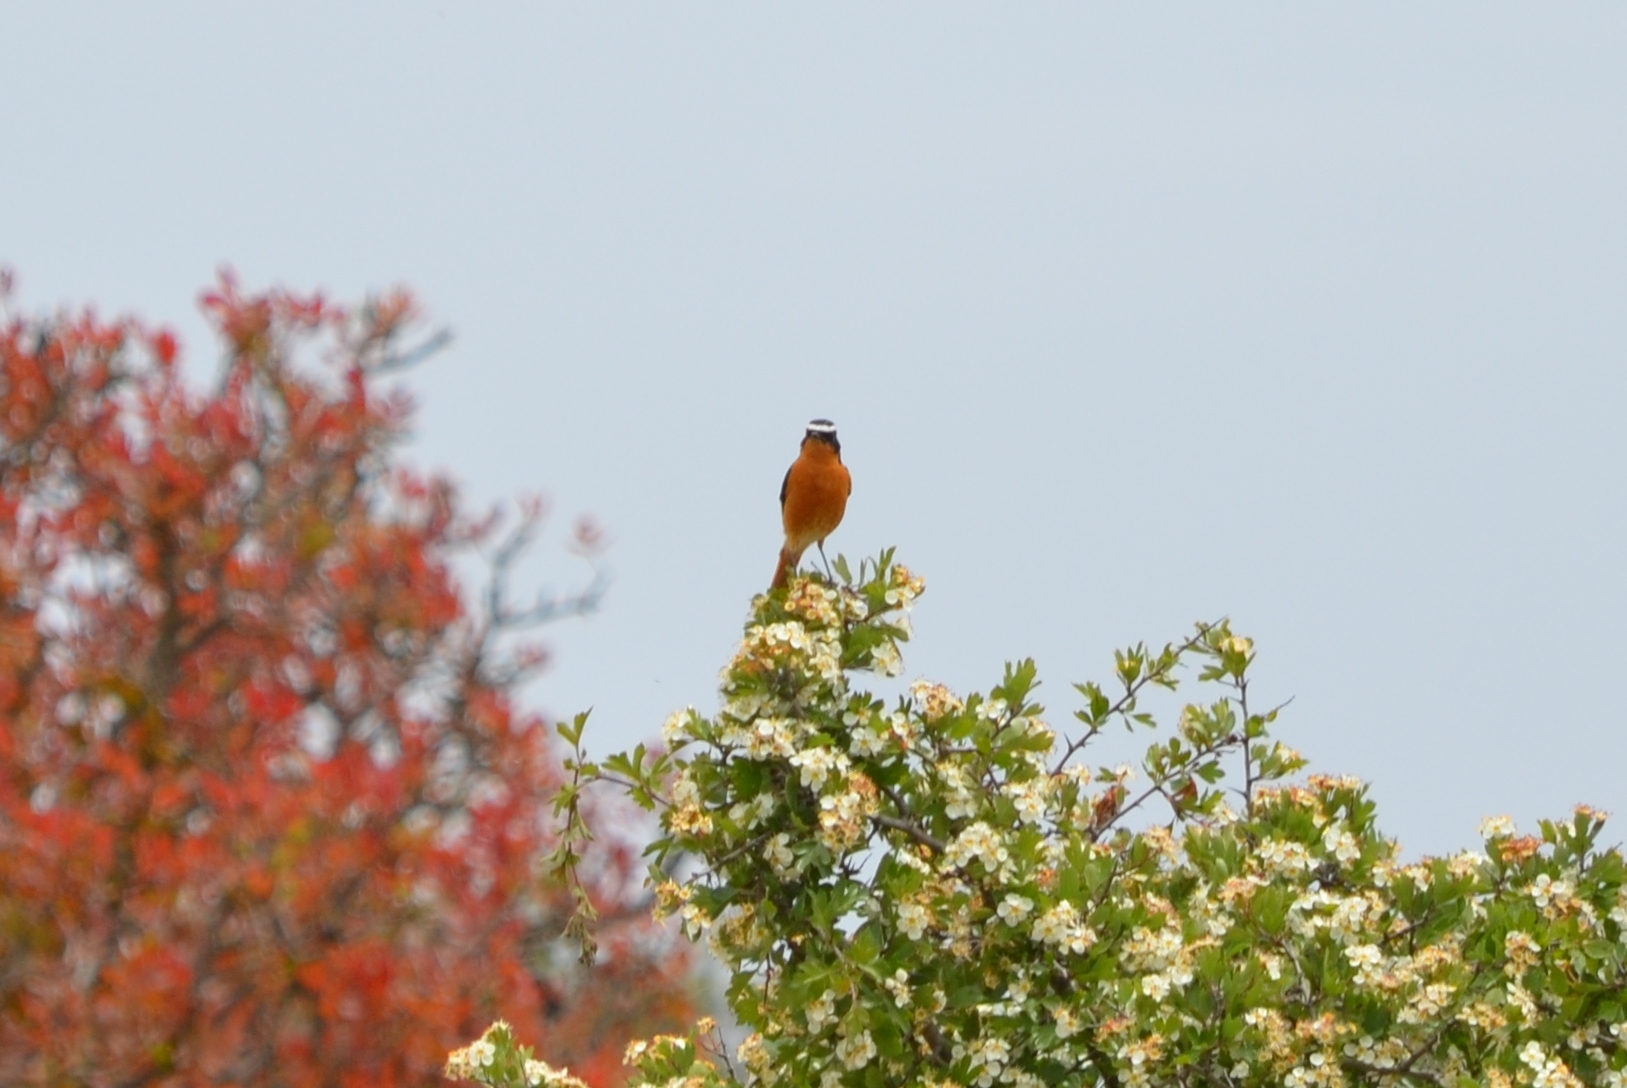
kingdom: Animalia
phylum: Chordata
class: Aves
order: Passeriformes
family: Muscicapidae
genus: Phoenicurus
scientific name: Phoenicurus moussieri
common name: Moussier's redstart
